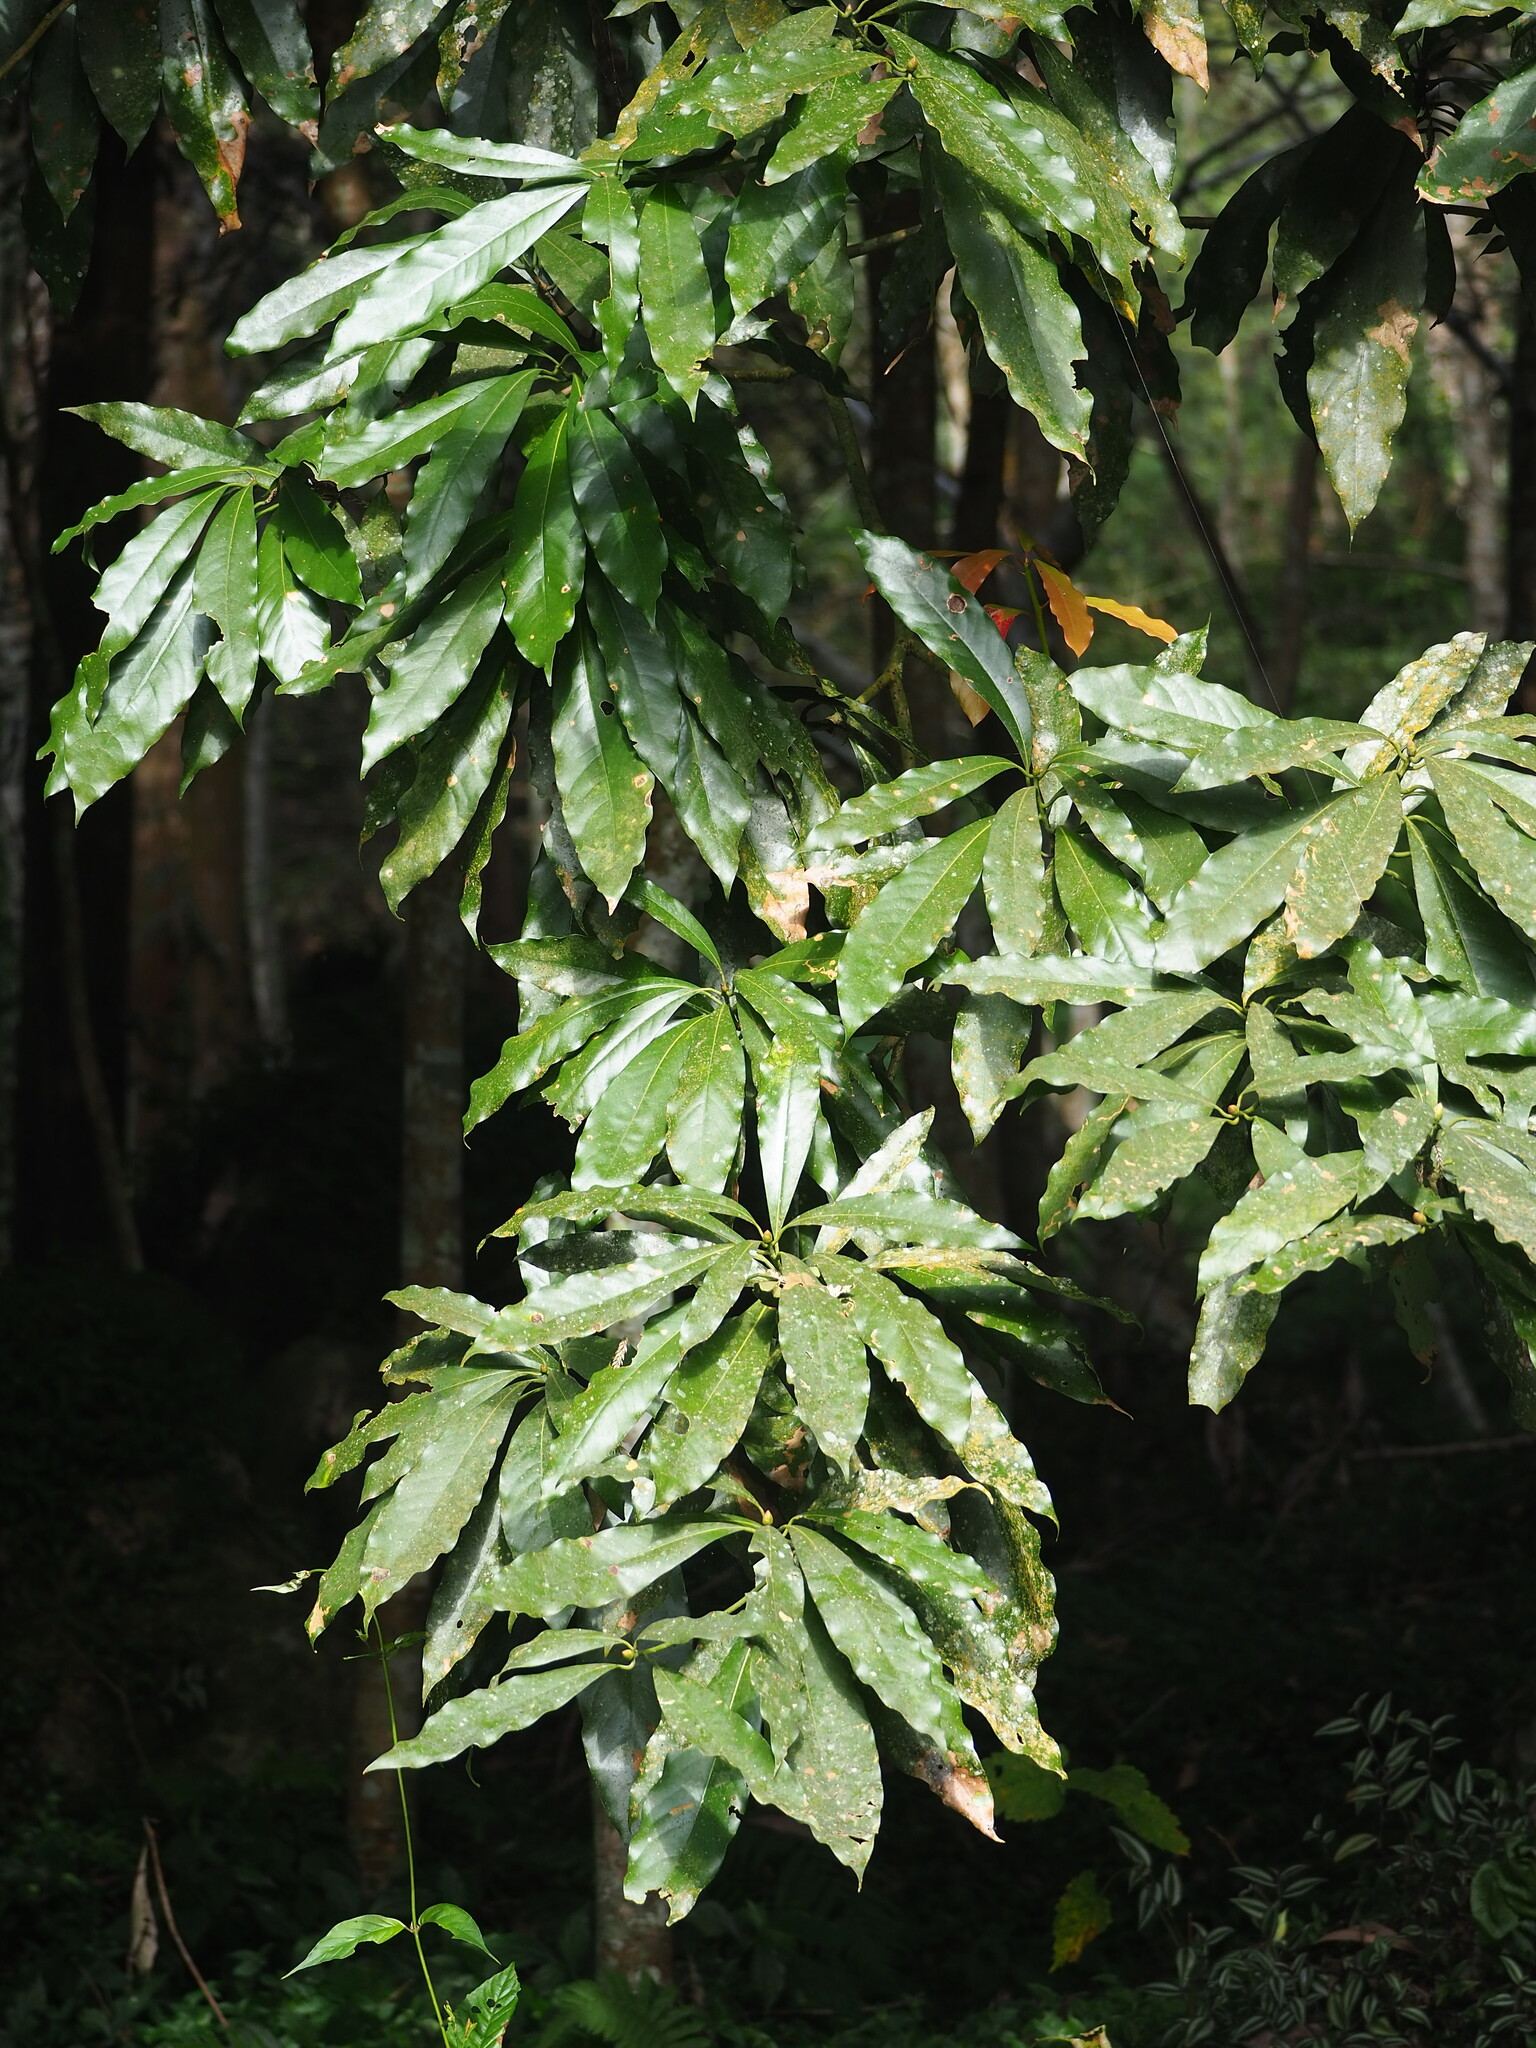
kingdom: Plantae
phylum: Tracheophyta
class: Magnoliopsida
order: Laurales
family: Lauraceae
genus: Machilus
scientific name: Machilus japonica
